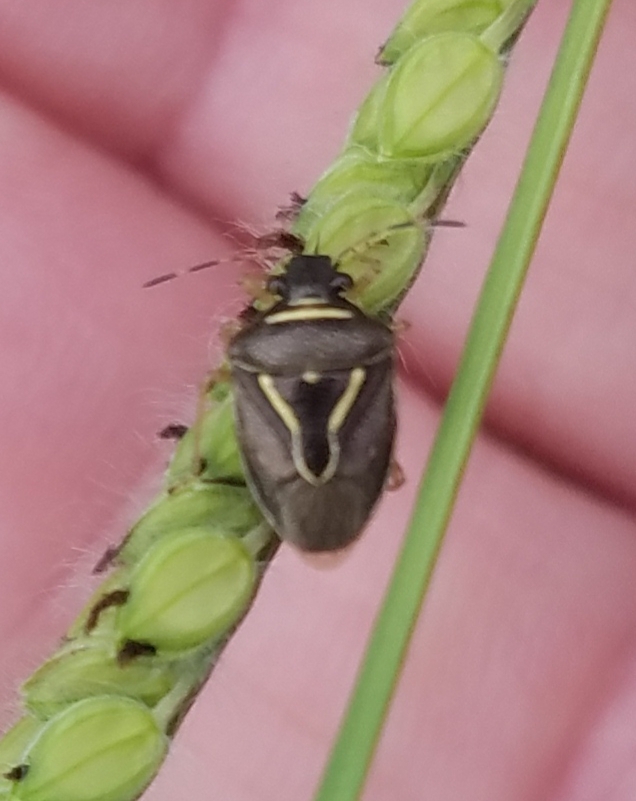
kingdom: Animalia
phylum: Arthropoda
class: Insecta
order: Hemiptera
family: Pentatomidae
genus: Mormidea
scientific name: Mormidea lugens
